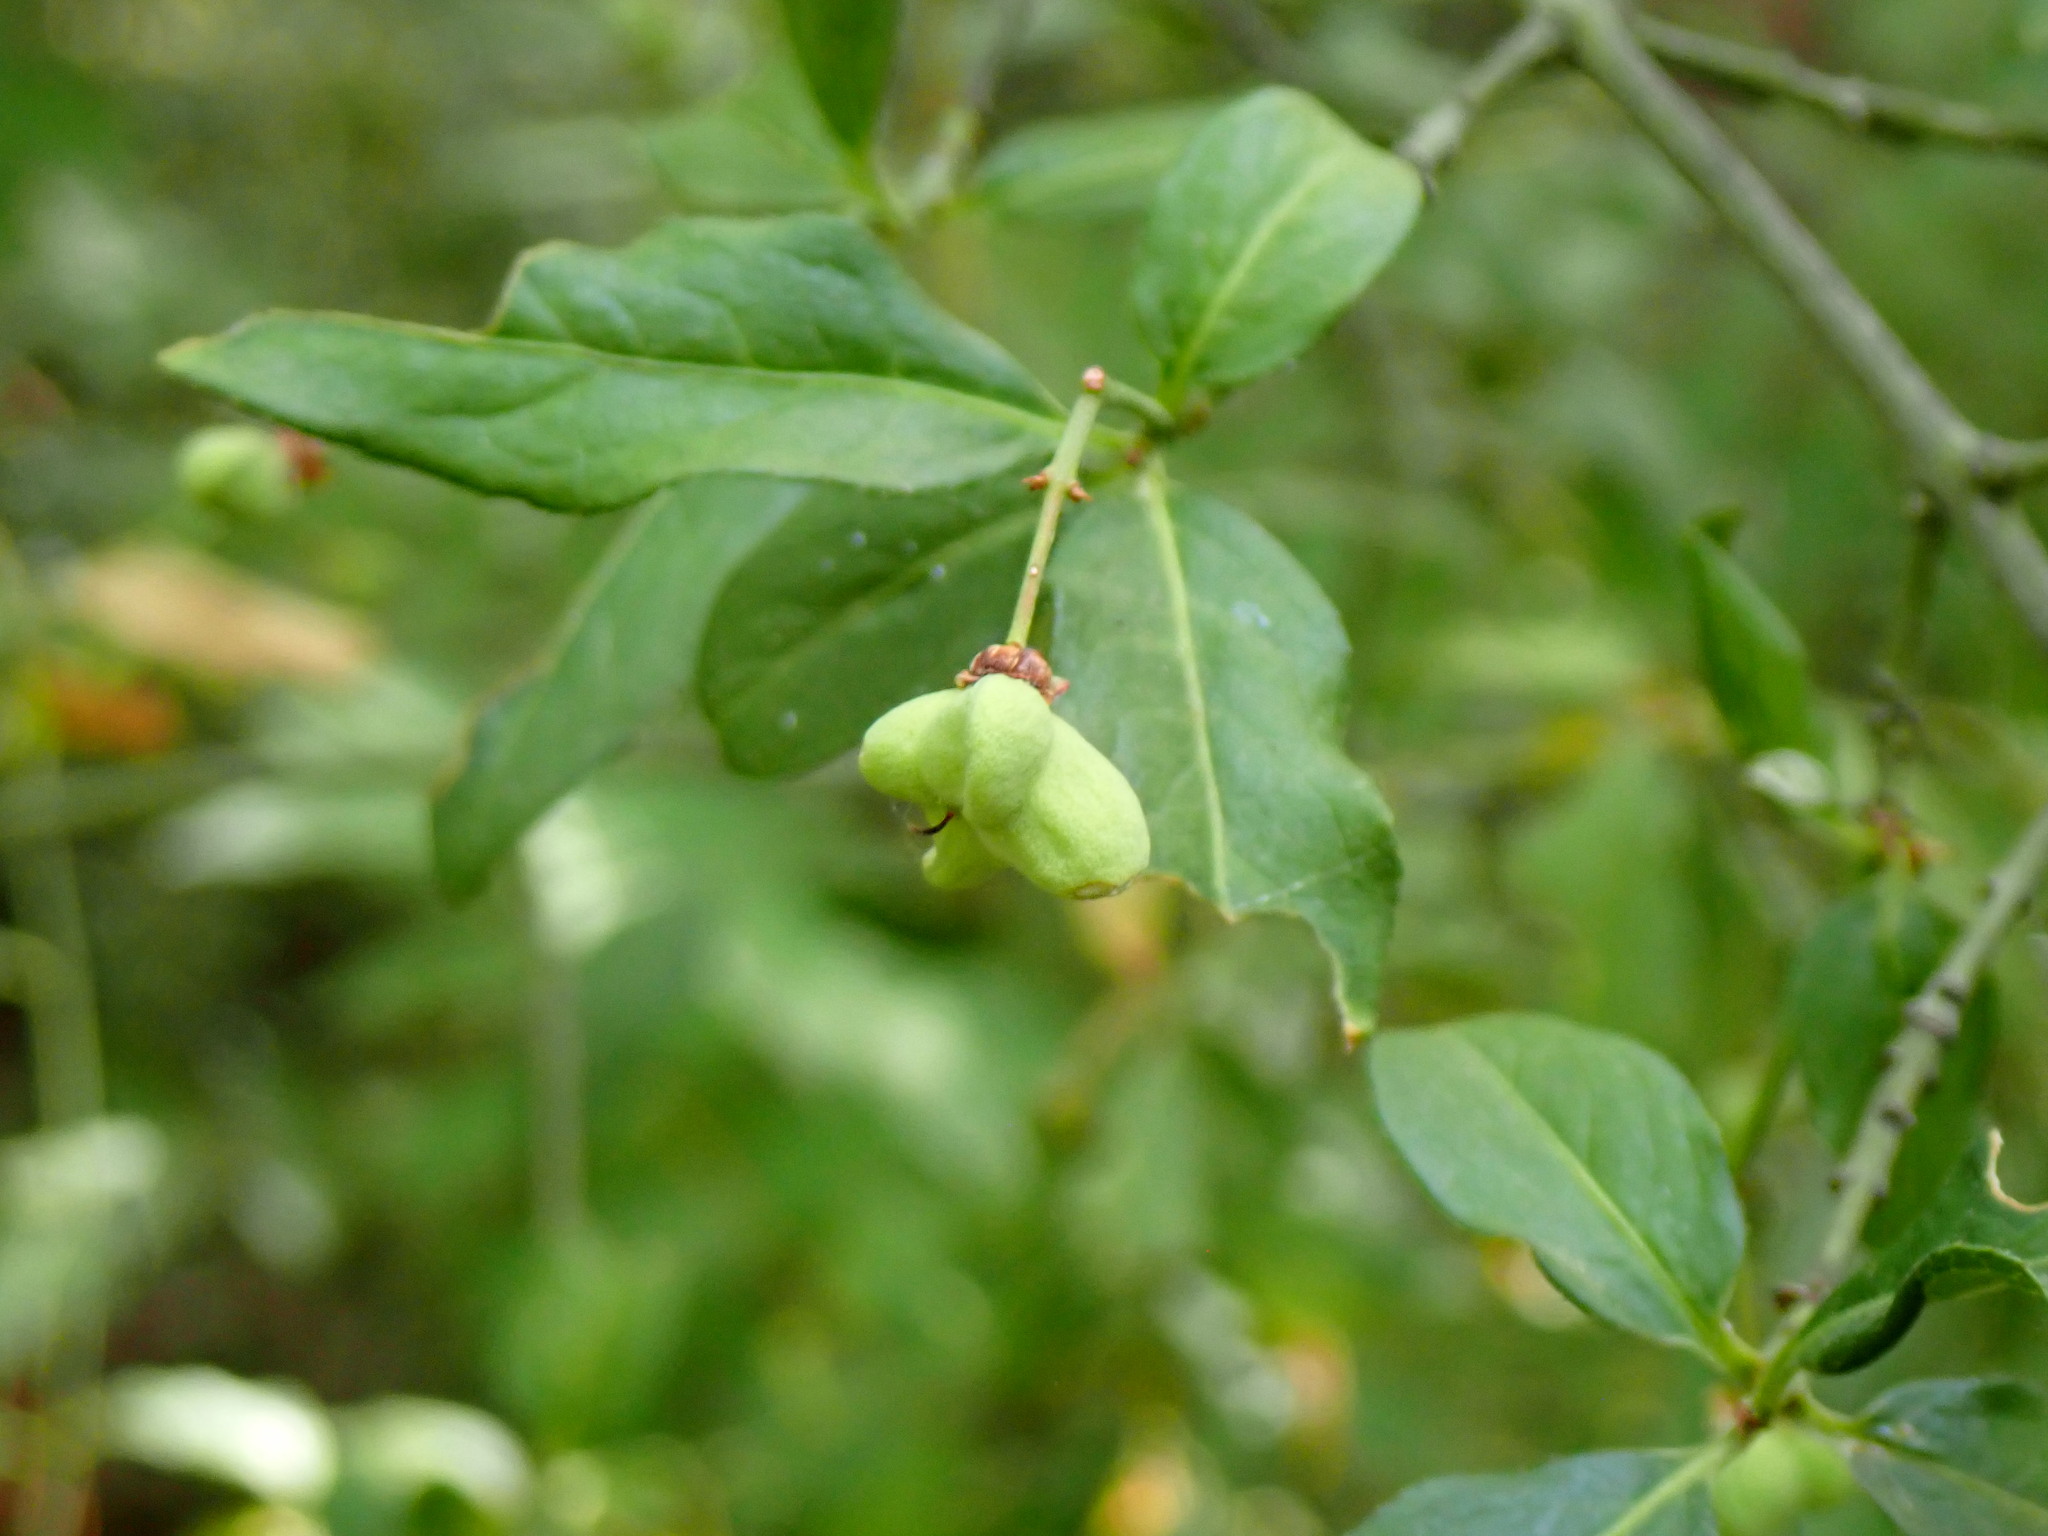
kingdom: Plantae
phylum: Tracheophyta
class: Magnoliopsida
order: Celastrales
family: Celastraceae
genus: Euonymus
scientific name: Euonymus europaeus
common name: Spindle
